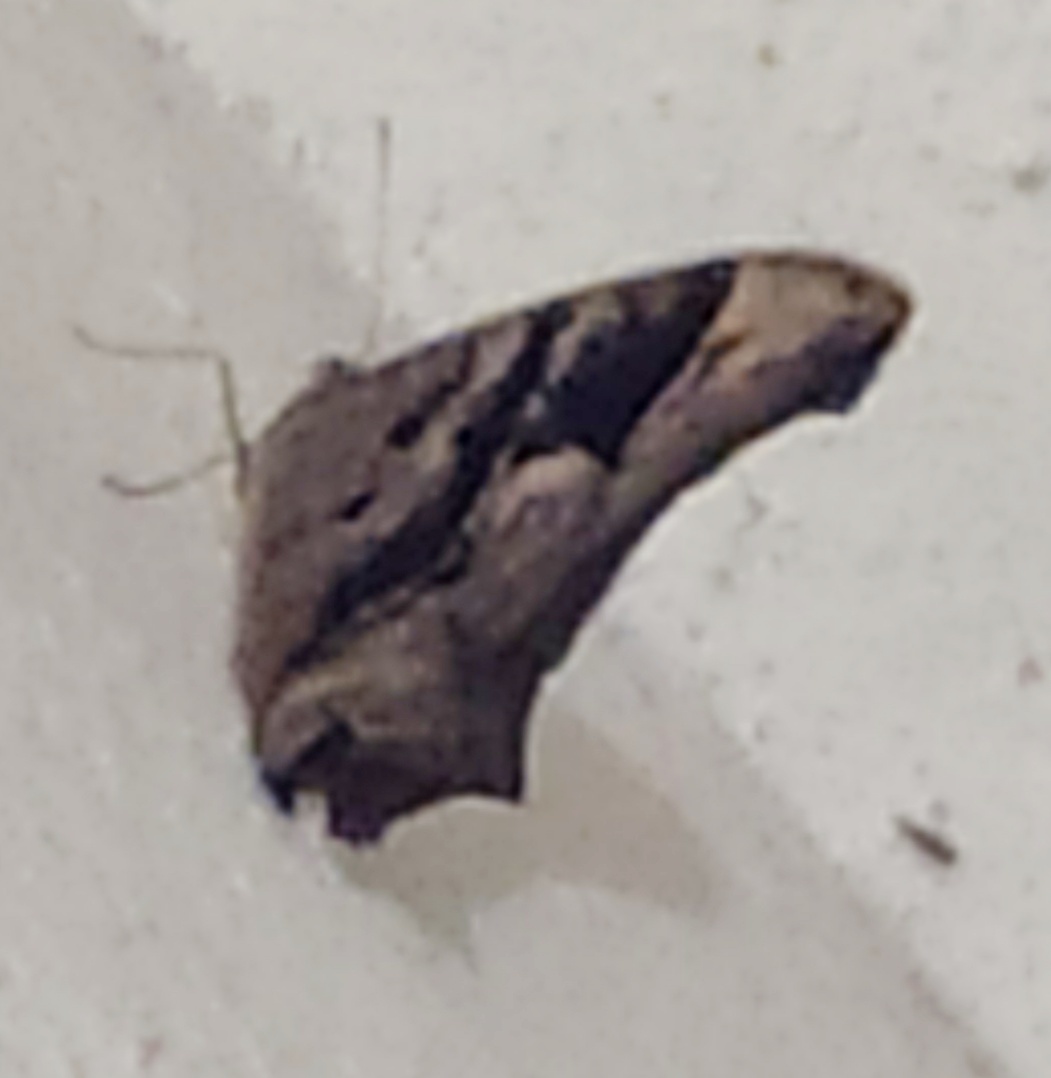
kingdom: Animalia
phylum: Arthropoda
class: Insecta
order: Lepidoptera
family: Nymphalidae
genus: Melanitis
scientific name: Melanitis leda
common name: Twilight brown
